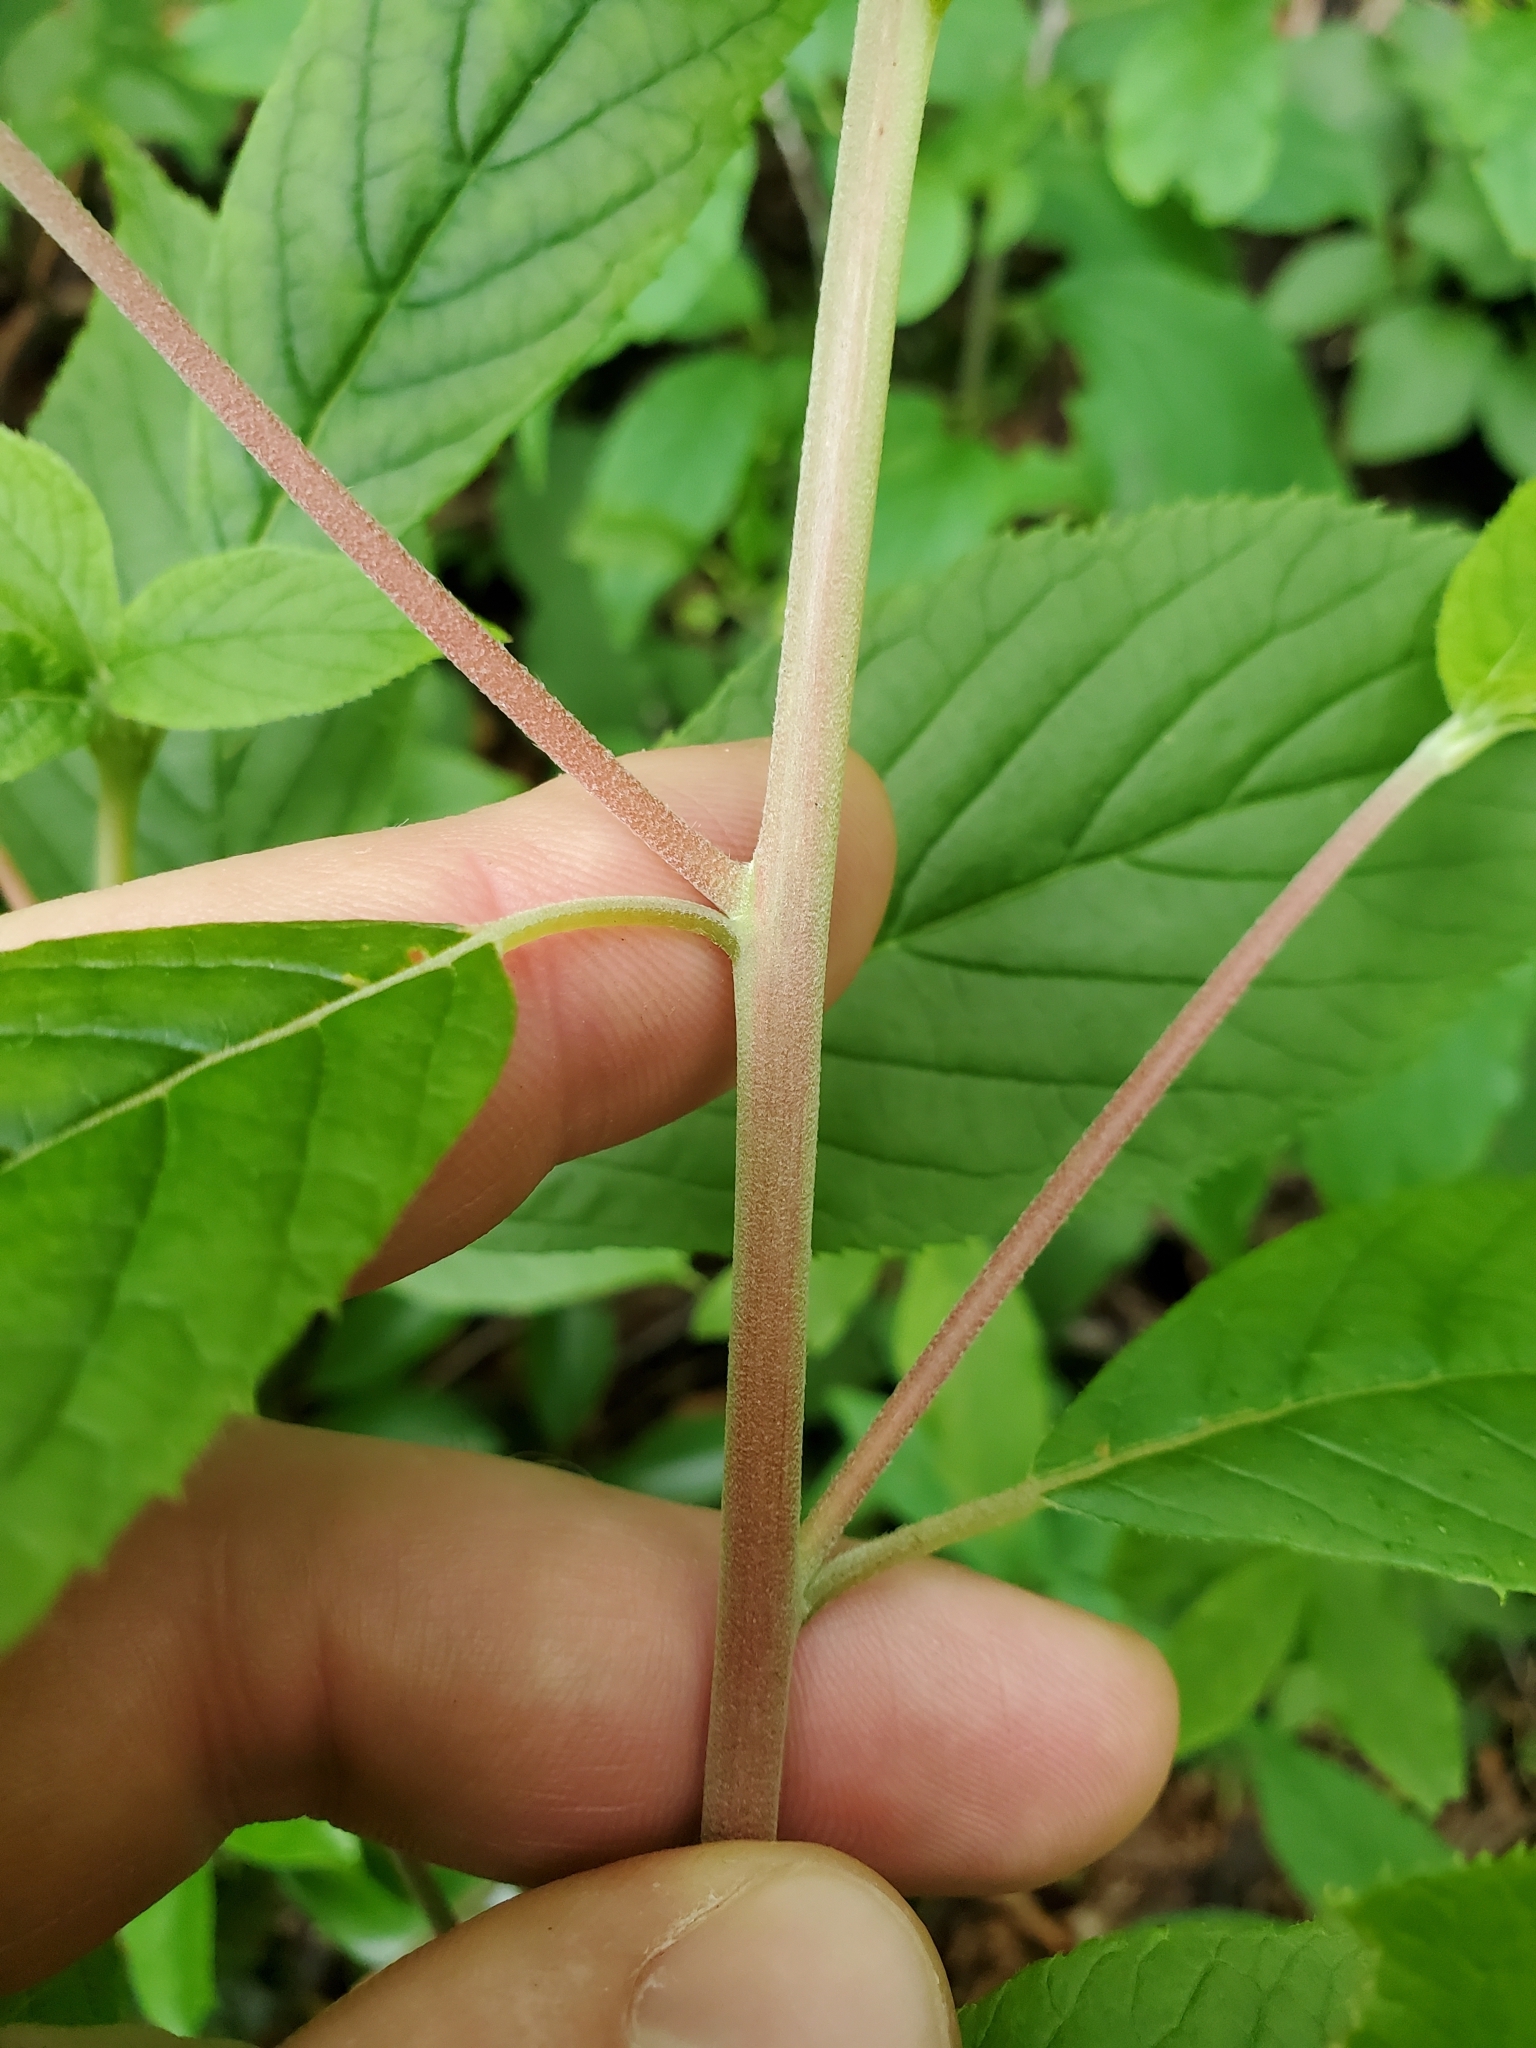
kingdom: Plantae
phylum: Tracheophyta
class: Magnoliopsida
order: Ericales
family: Clethraceae
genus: Clethra
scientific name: Clethra acuminata
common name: Mountain sweet pepperbush
